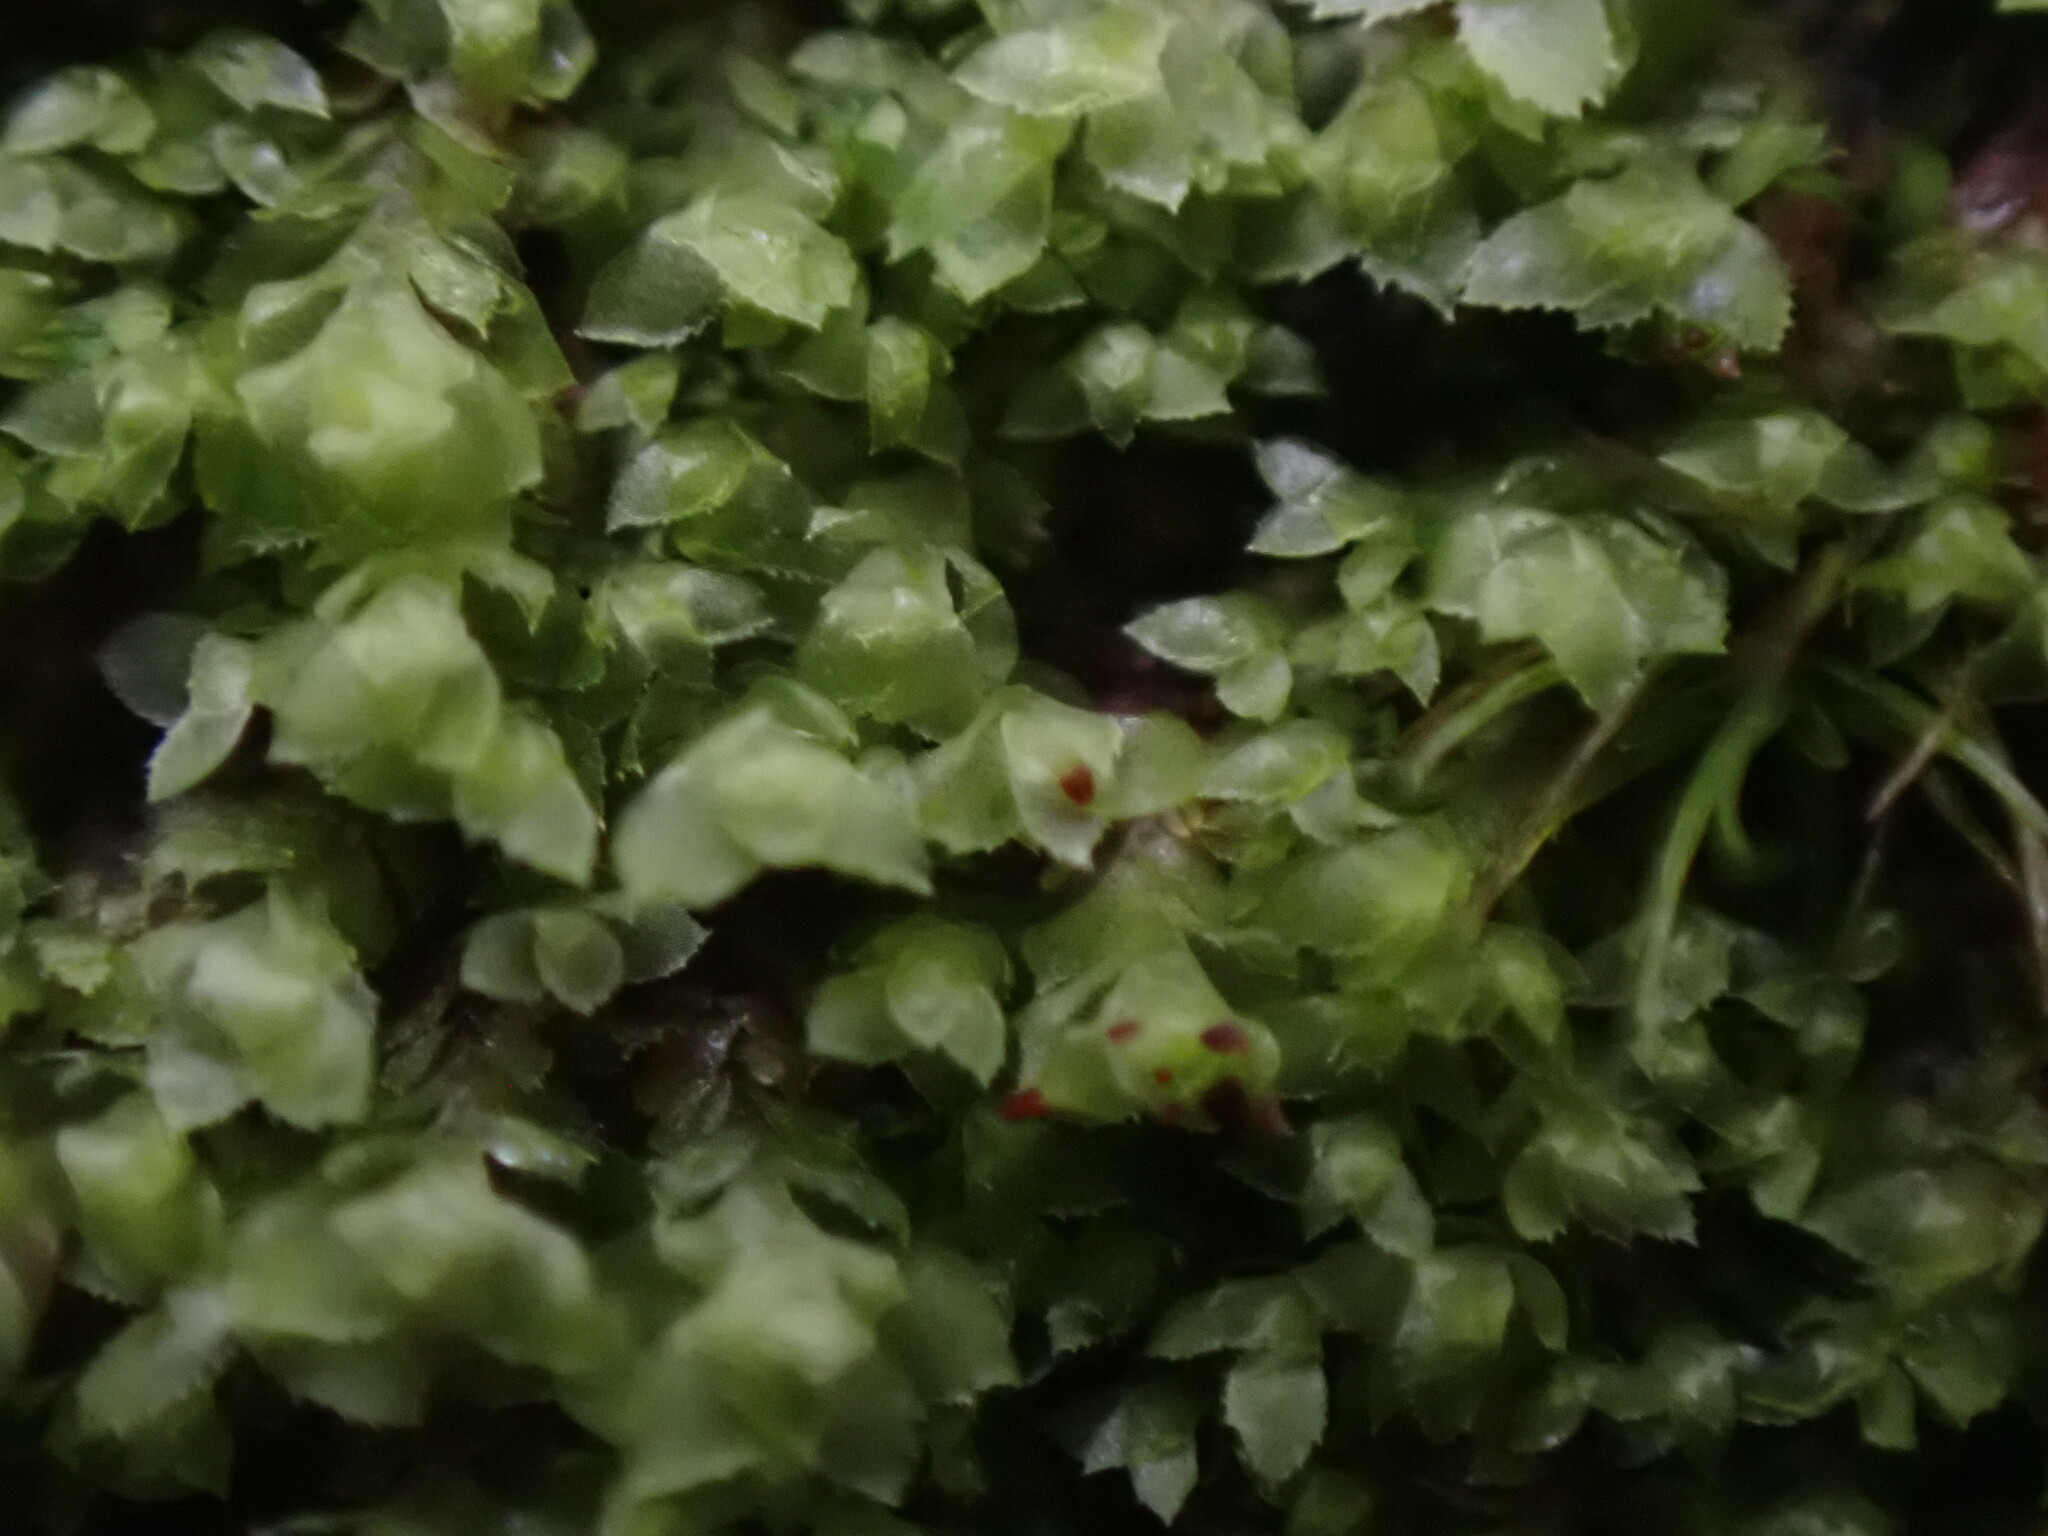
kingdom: Plantae
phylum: Marchantiophyta
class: Jungermanniopsida
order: Jungermanniales
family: Scapaniaceae
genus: Scapania
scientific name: Scapania umbrosa
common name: Shady earwort
